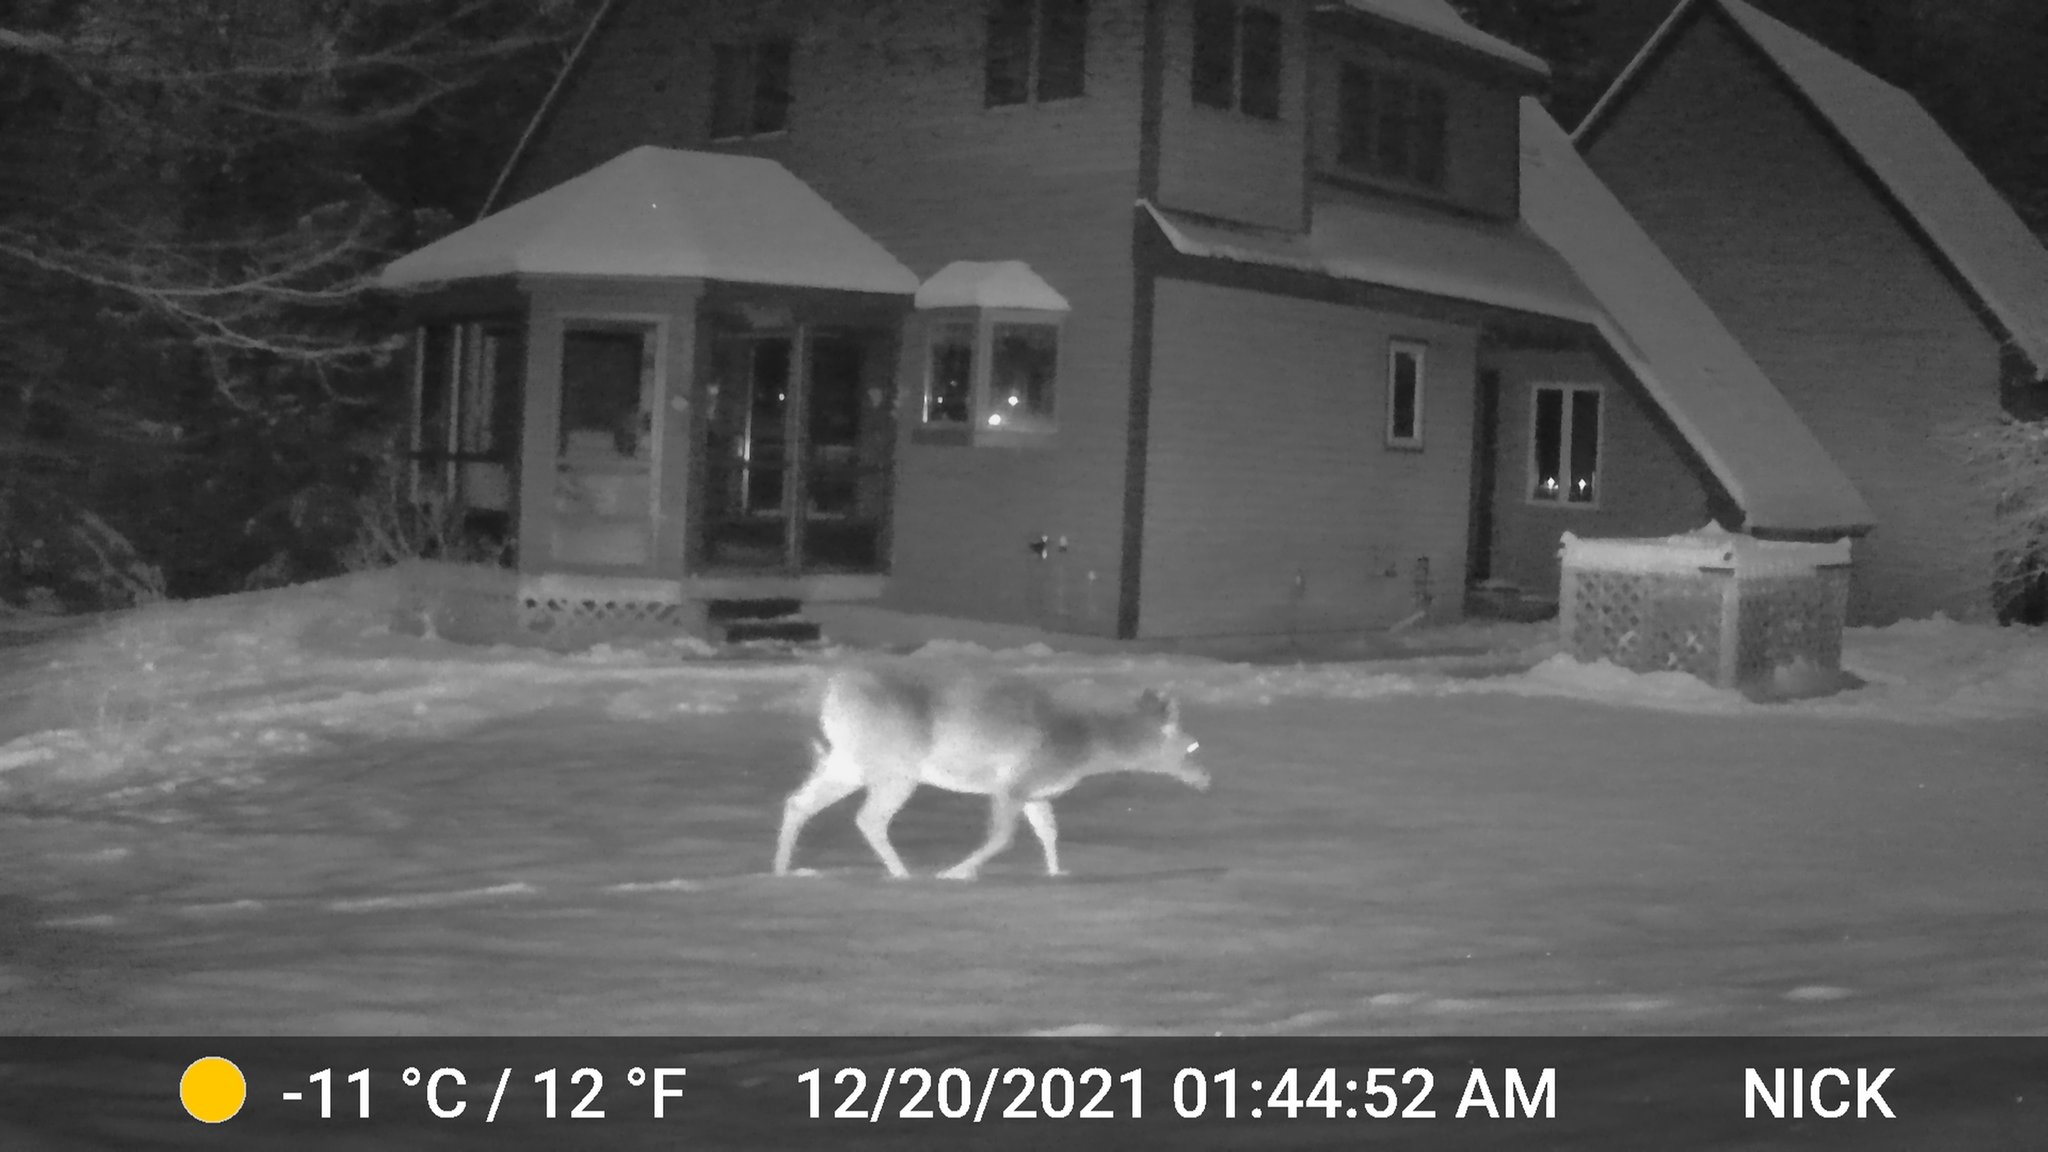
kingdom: Animalia
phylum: Chordata
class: Mammalia
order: Artiodactyla
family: Cervidae
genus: Odocoileus
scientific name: Odocoileus virginianus
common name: White-tailed deer
